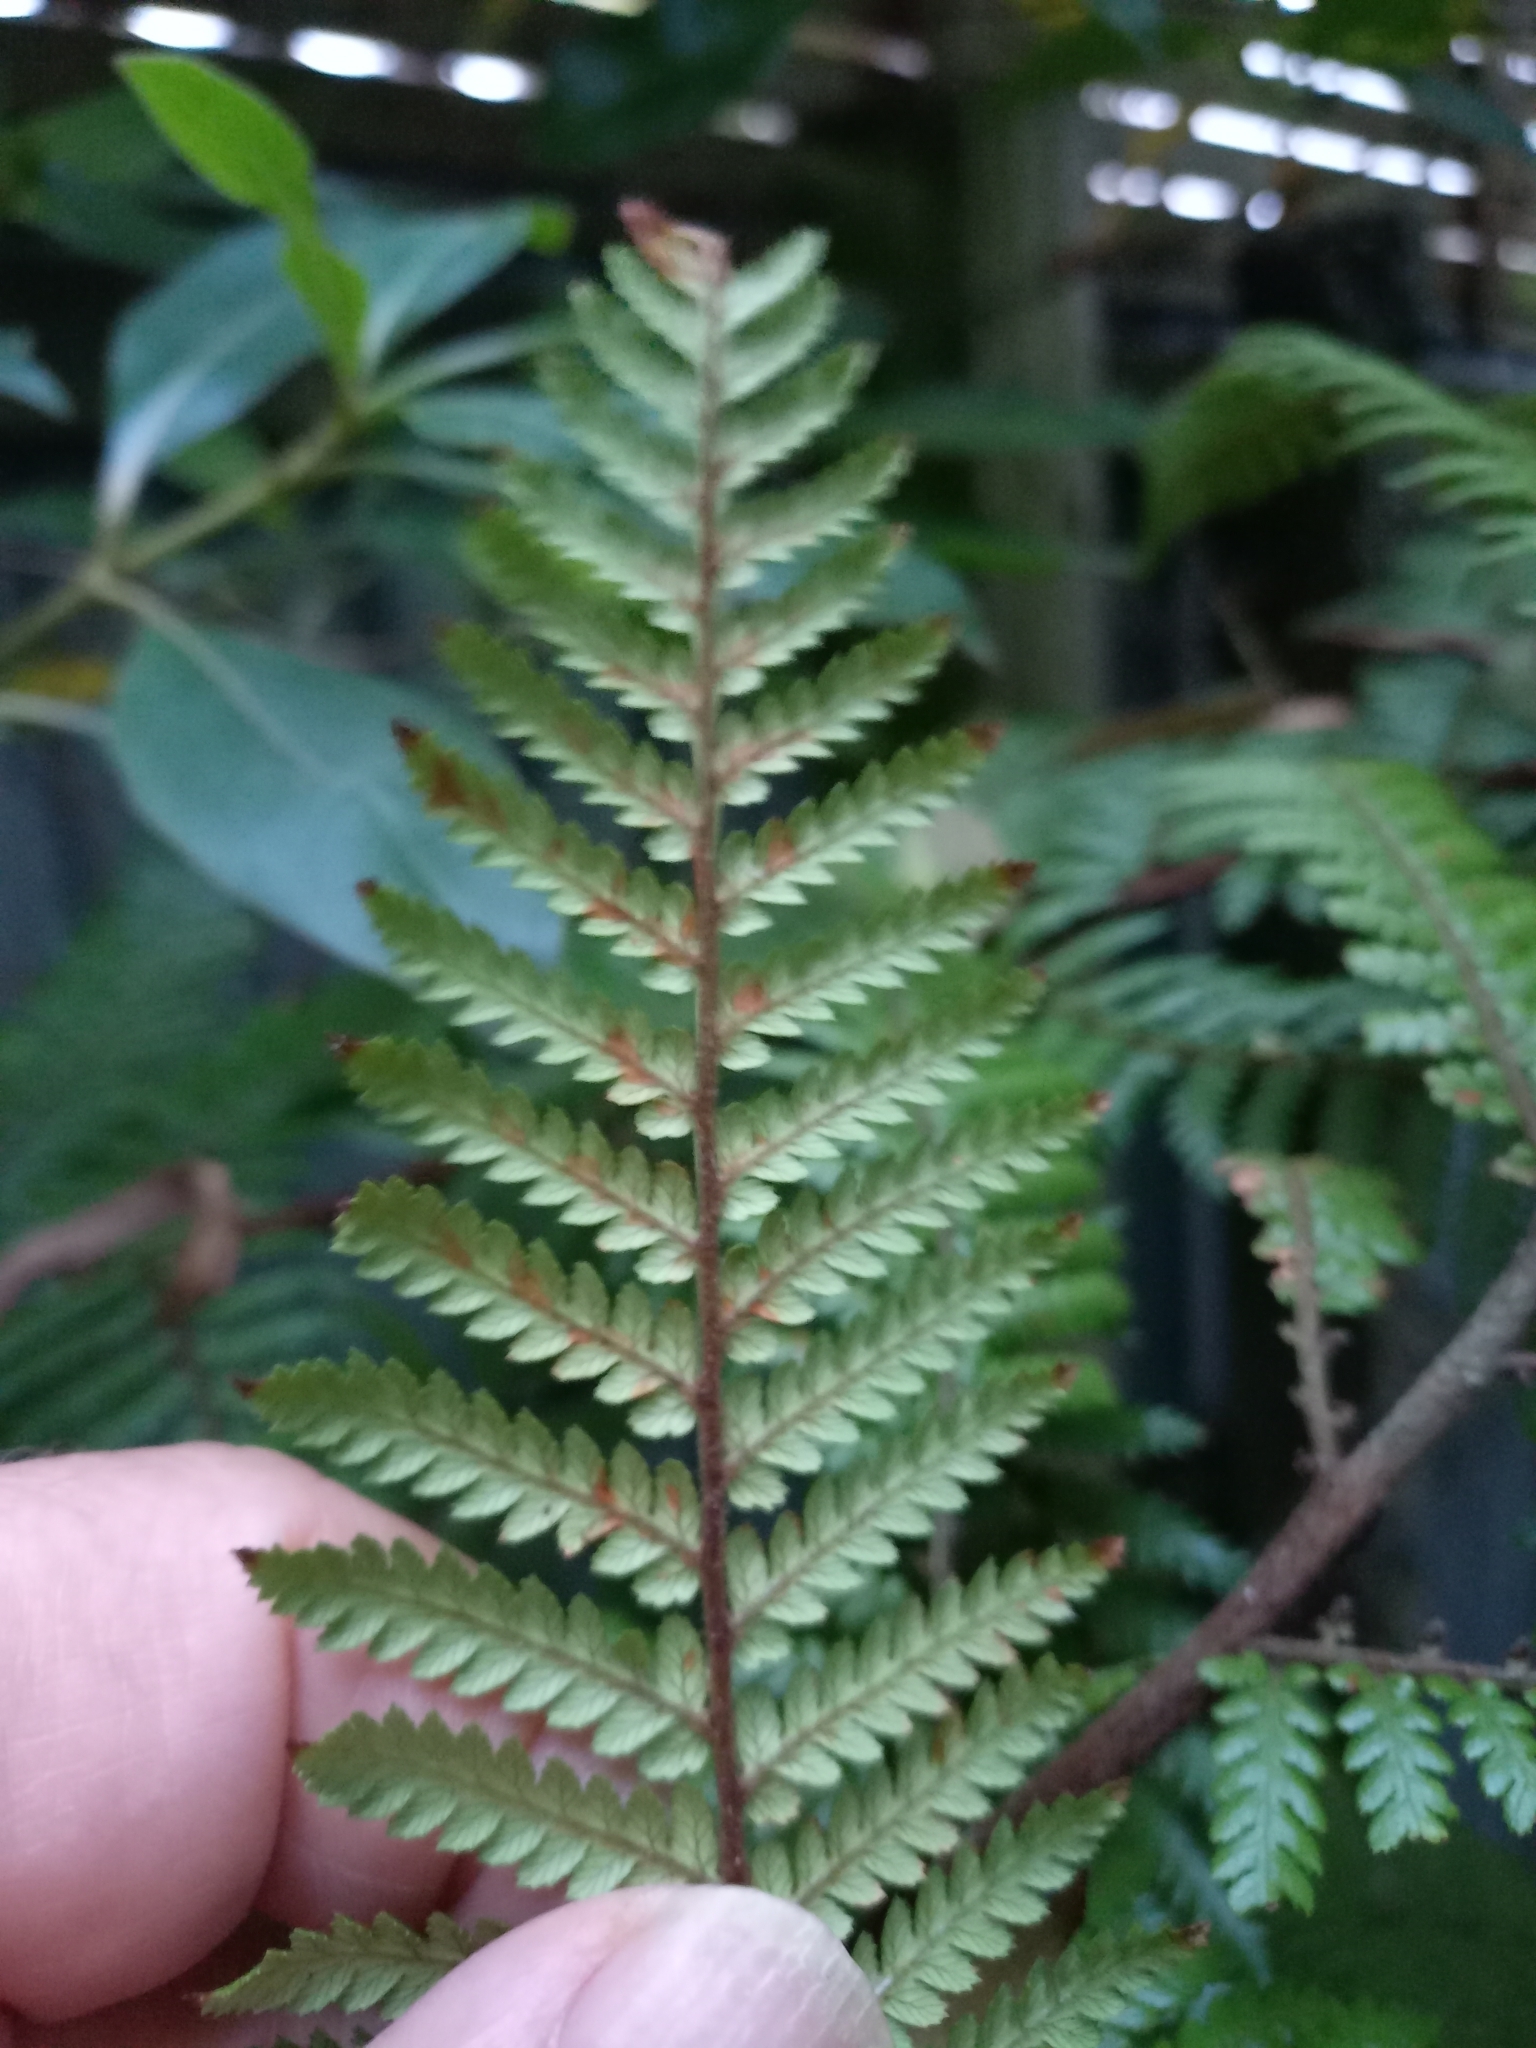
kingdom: Plantae
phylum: Tracheophyta
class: Polypodiopsida
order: Cyatheales
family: Dicksoniaceae
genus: Dicksonia
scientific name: Dicksonia squarrosa
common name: Hard treefern
